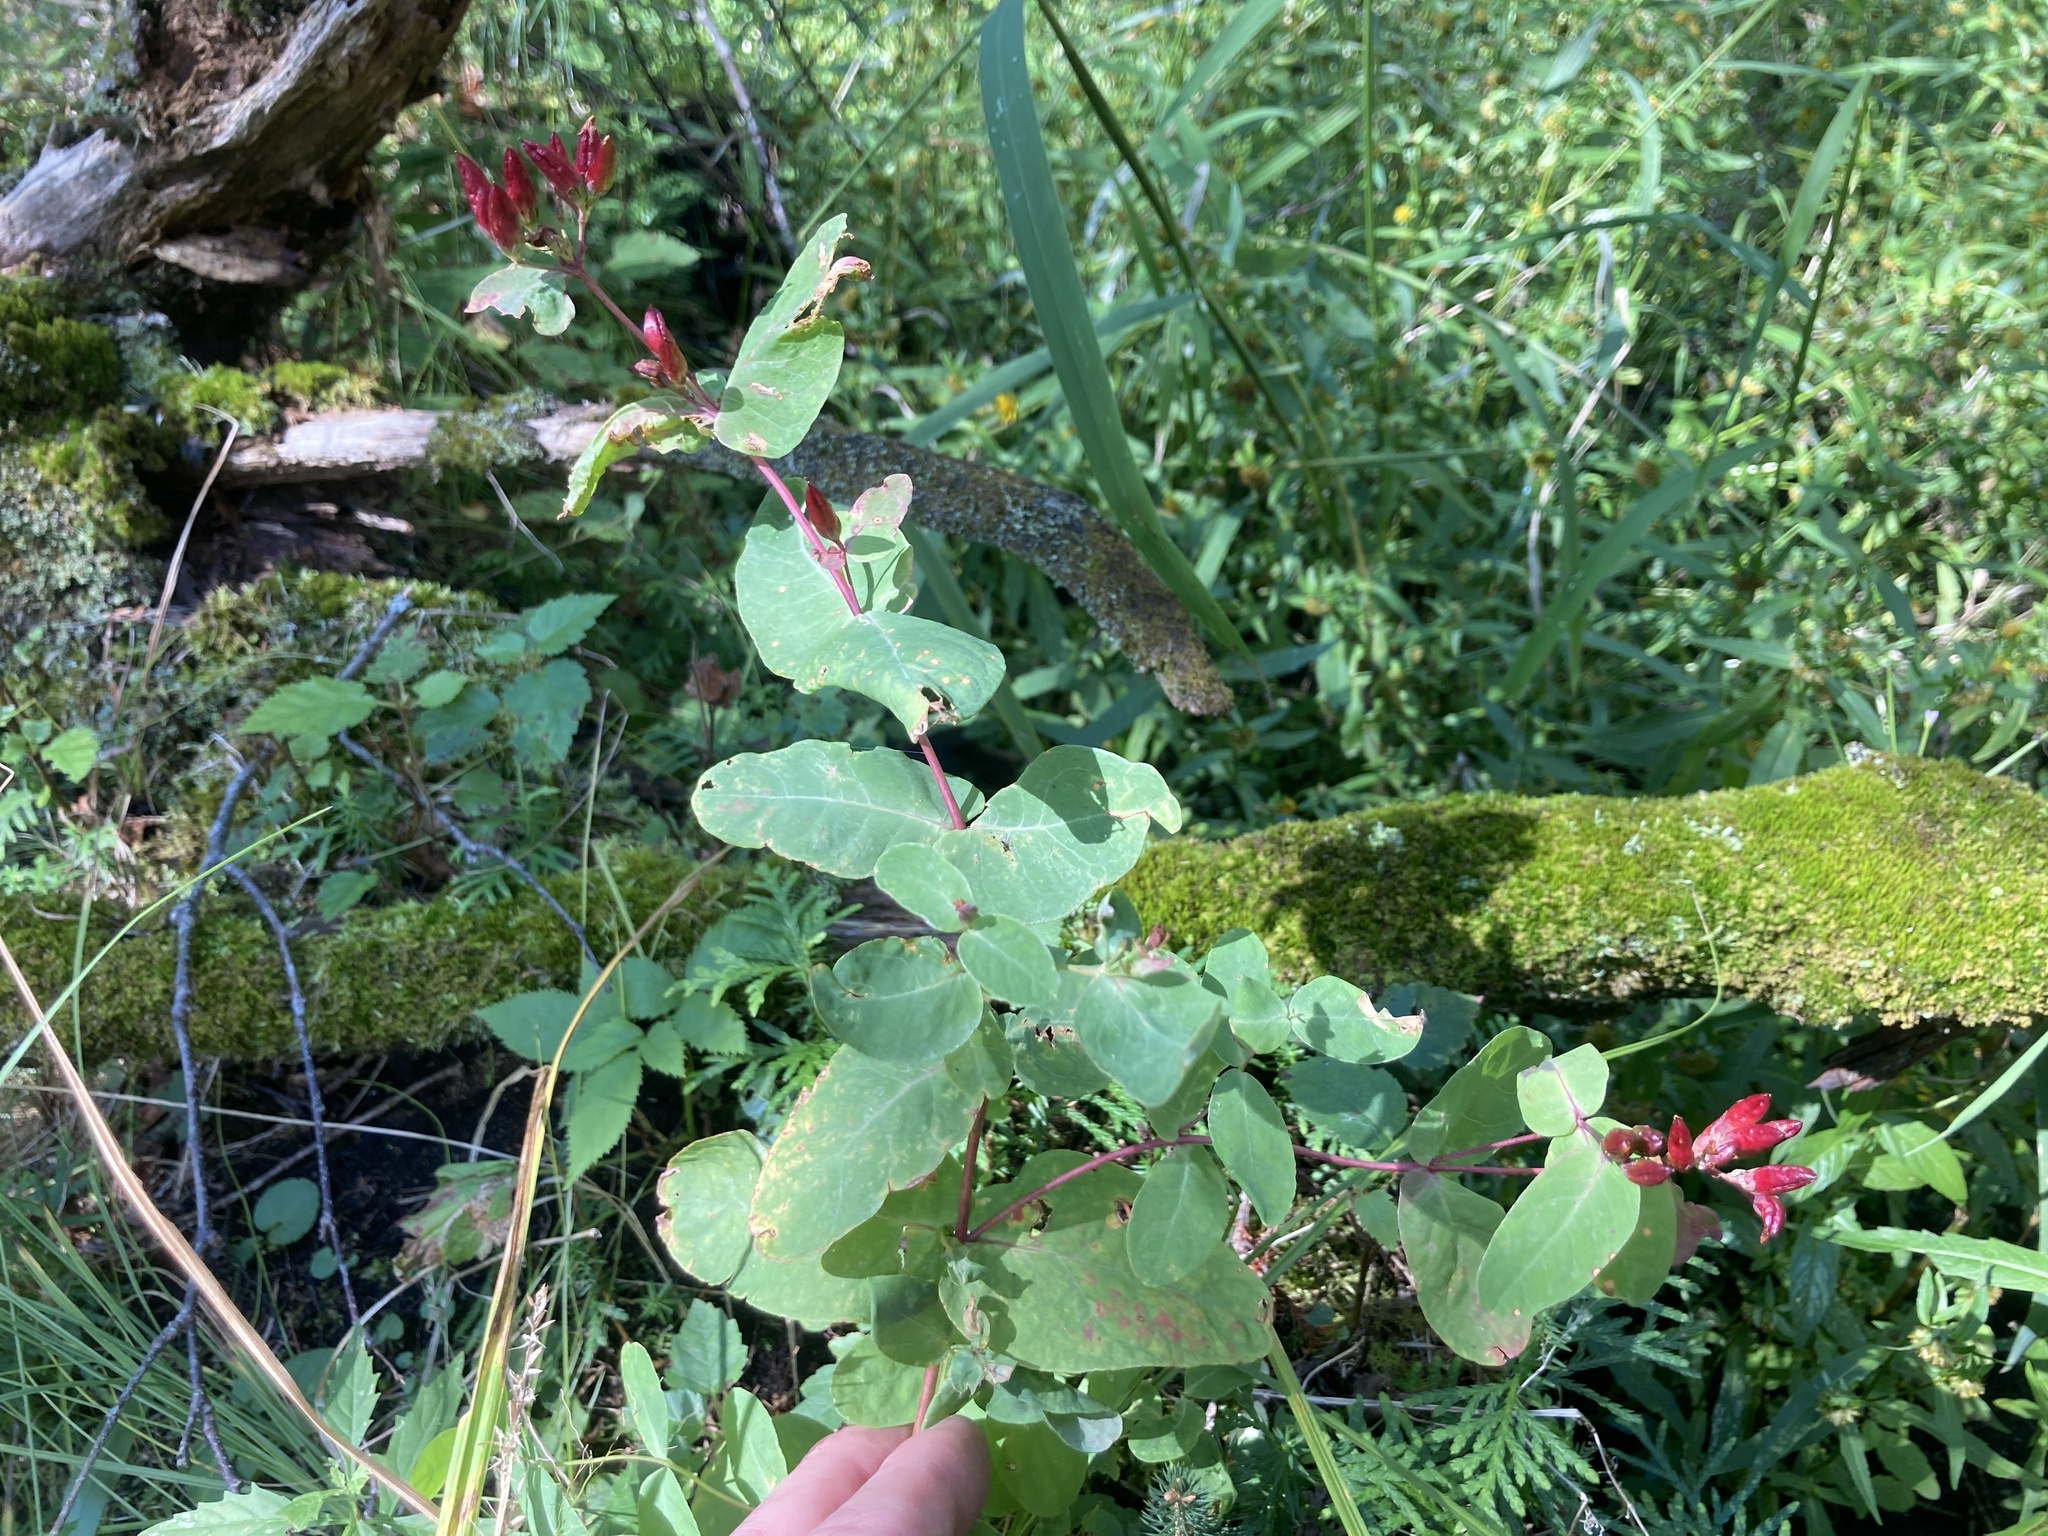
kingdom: Plantae
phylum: Tracheophyta
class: Magnoliopsida
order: Malpighiales
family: Hypericaceae
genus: Triadenum
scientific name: Triadenum fraseri
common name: Fraser's marsh st. johnswort
